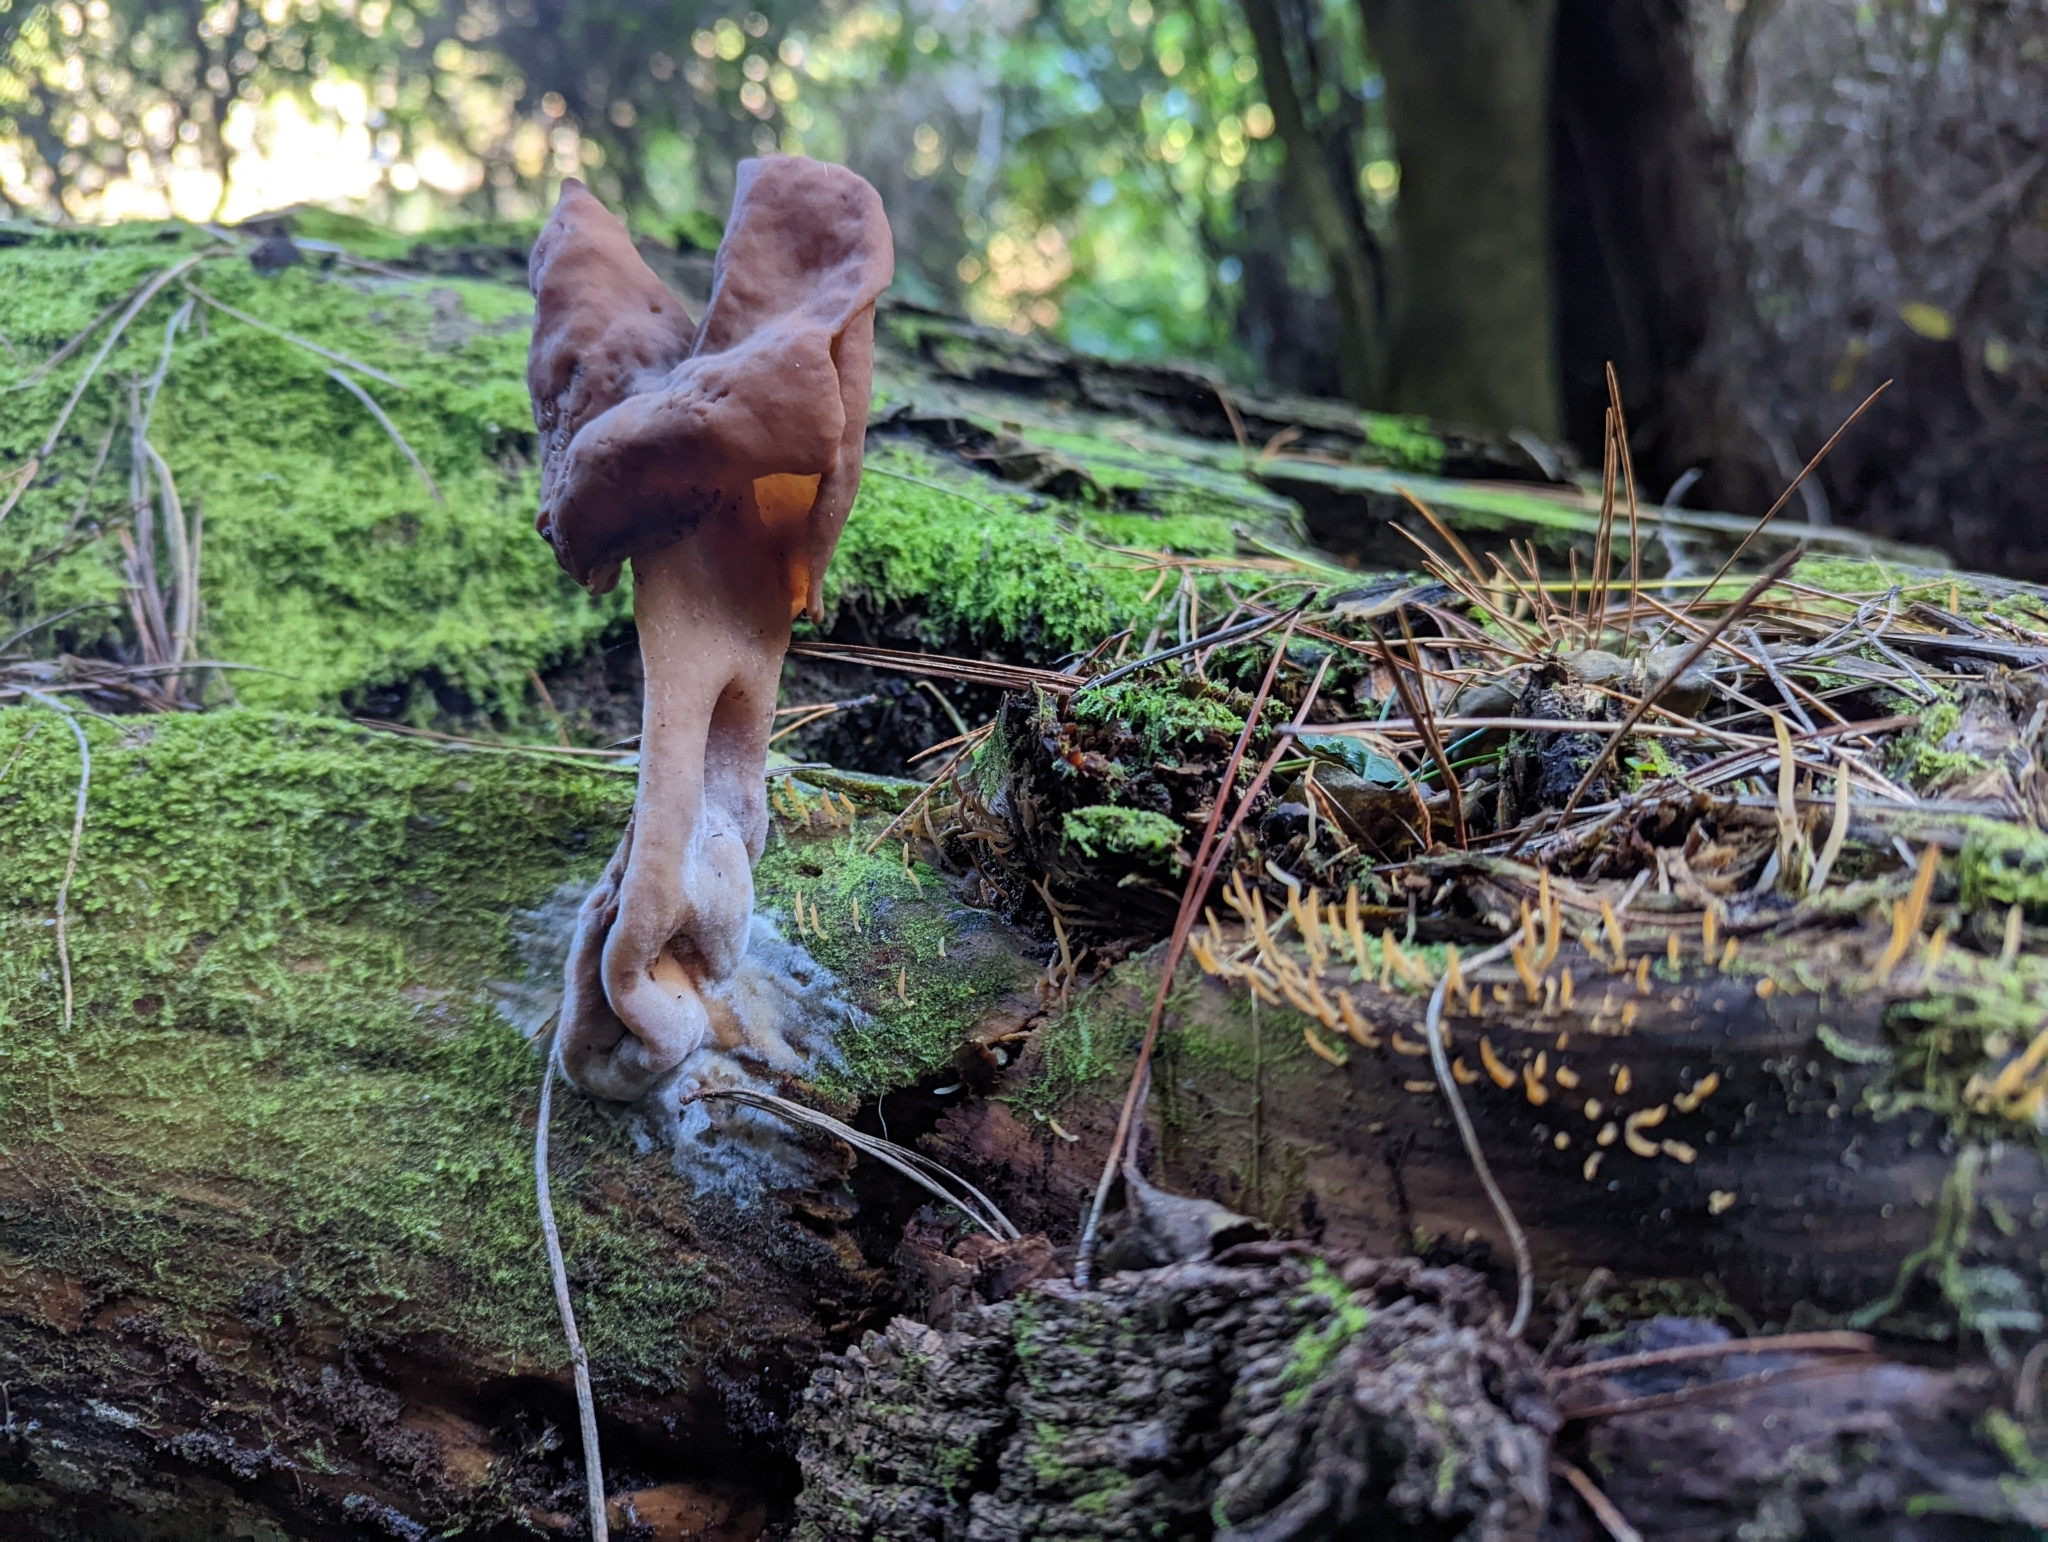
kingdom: Fungi
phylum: Ascomycota
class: Pezizomycetes
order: Pezizales
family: Discinaceae
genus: Gyromitra
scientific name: Gyromitra infula
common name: Pouched false morel
